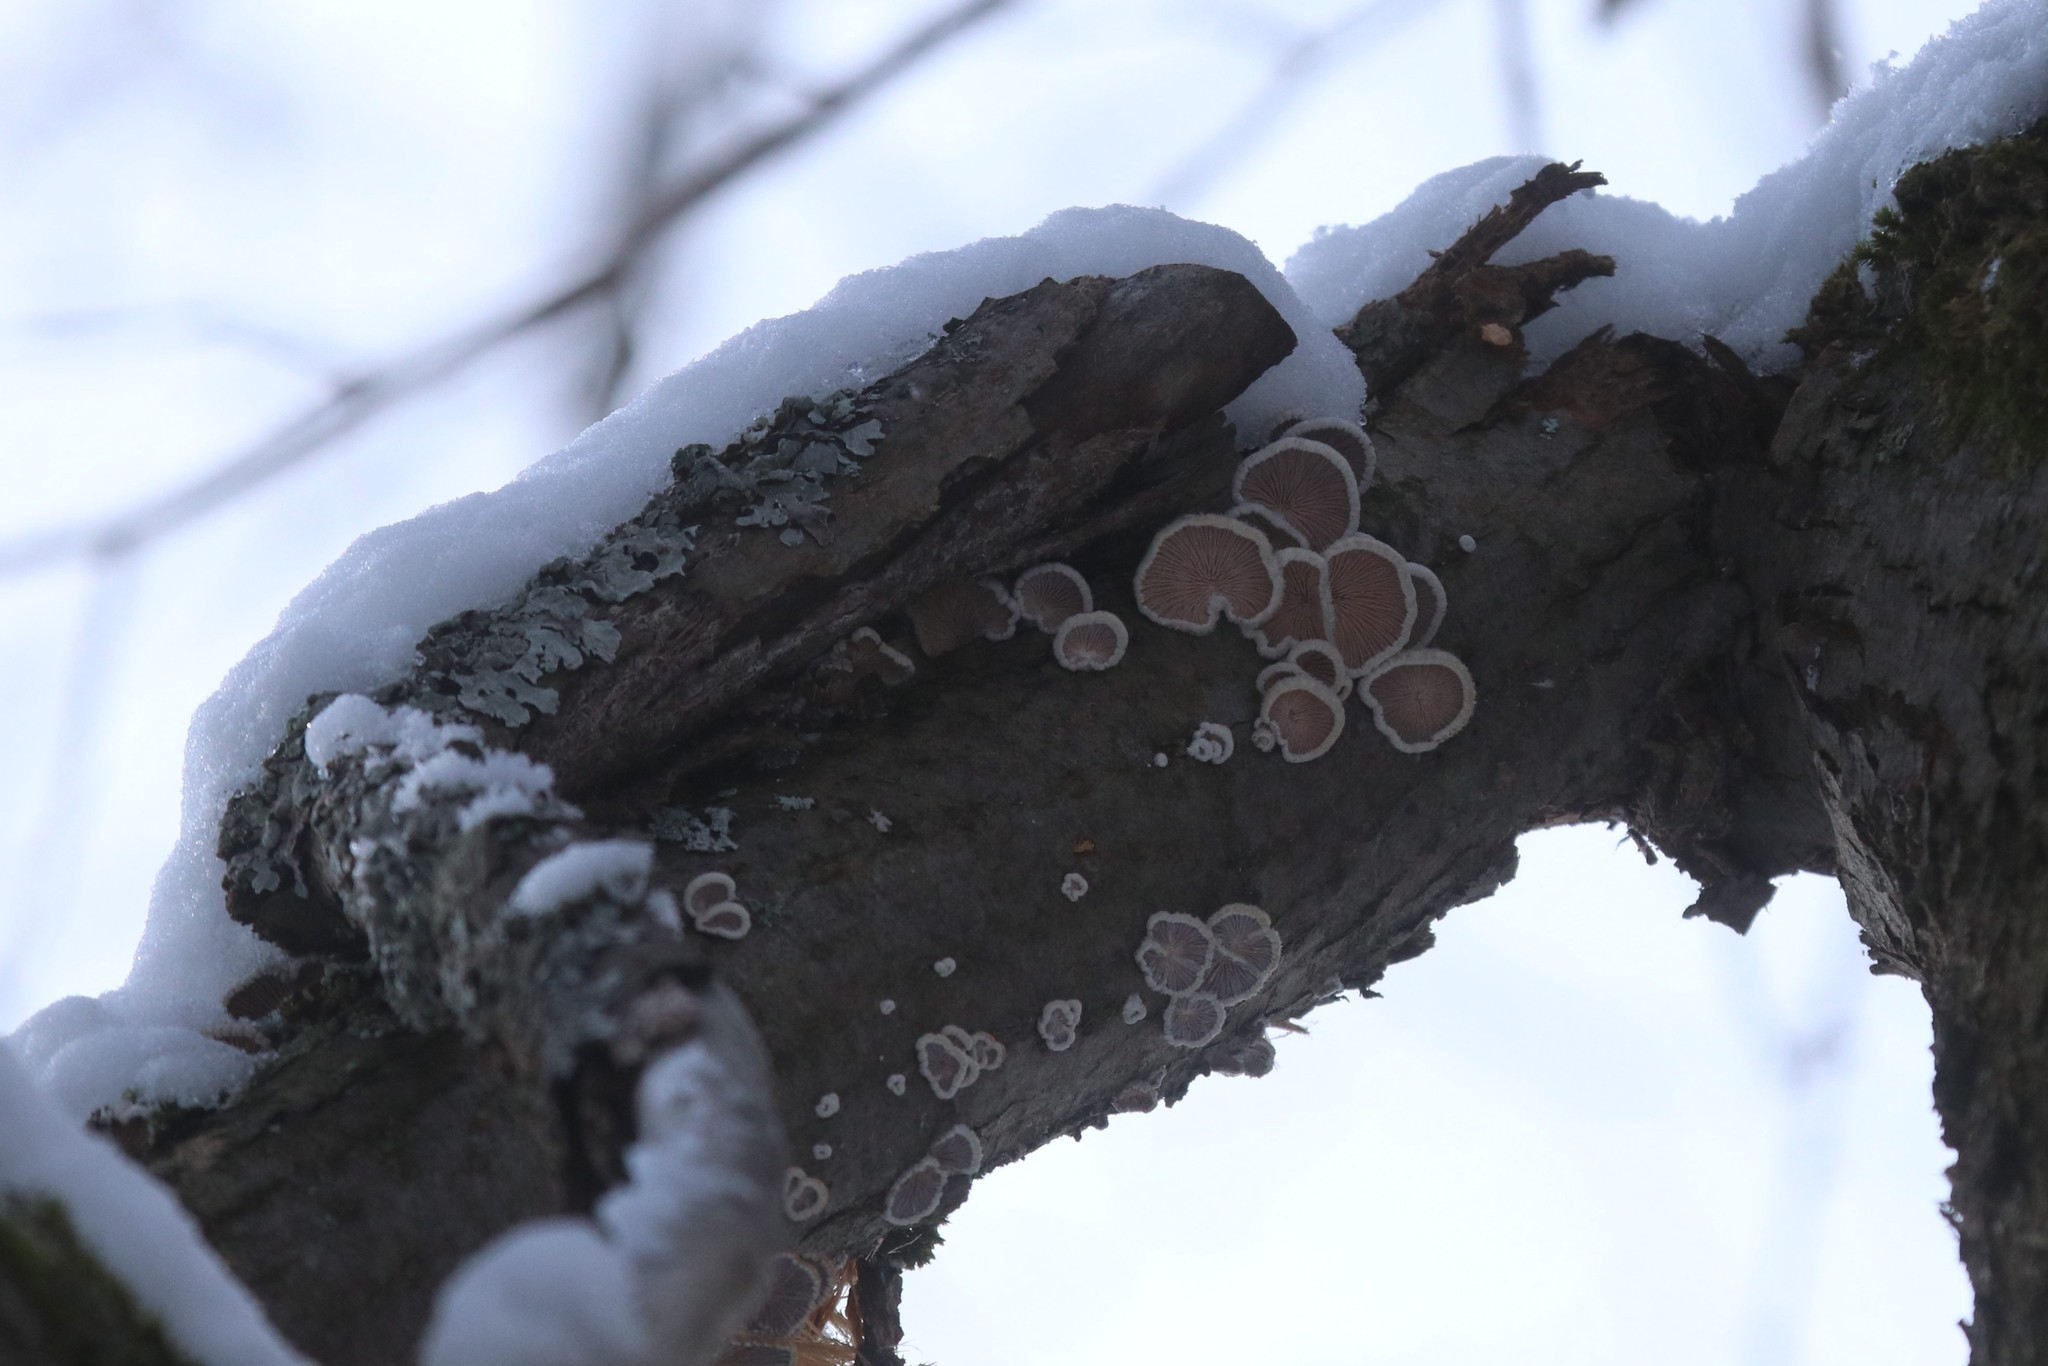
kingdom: Fungi
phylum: Basidiomycota
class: Agaricomycetes
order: Agaricales
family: Schizophyllaceae
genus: Schizophyllum
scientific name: Schizophyllum commune
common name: Common porecrust
